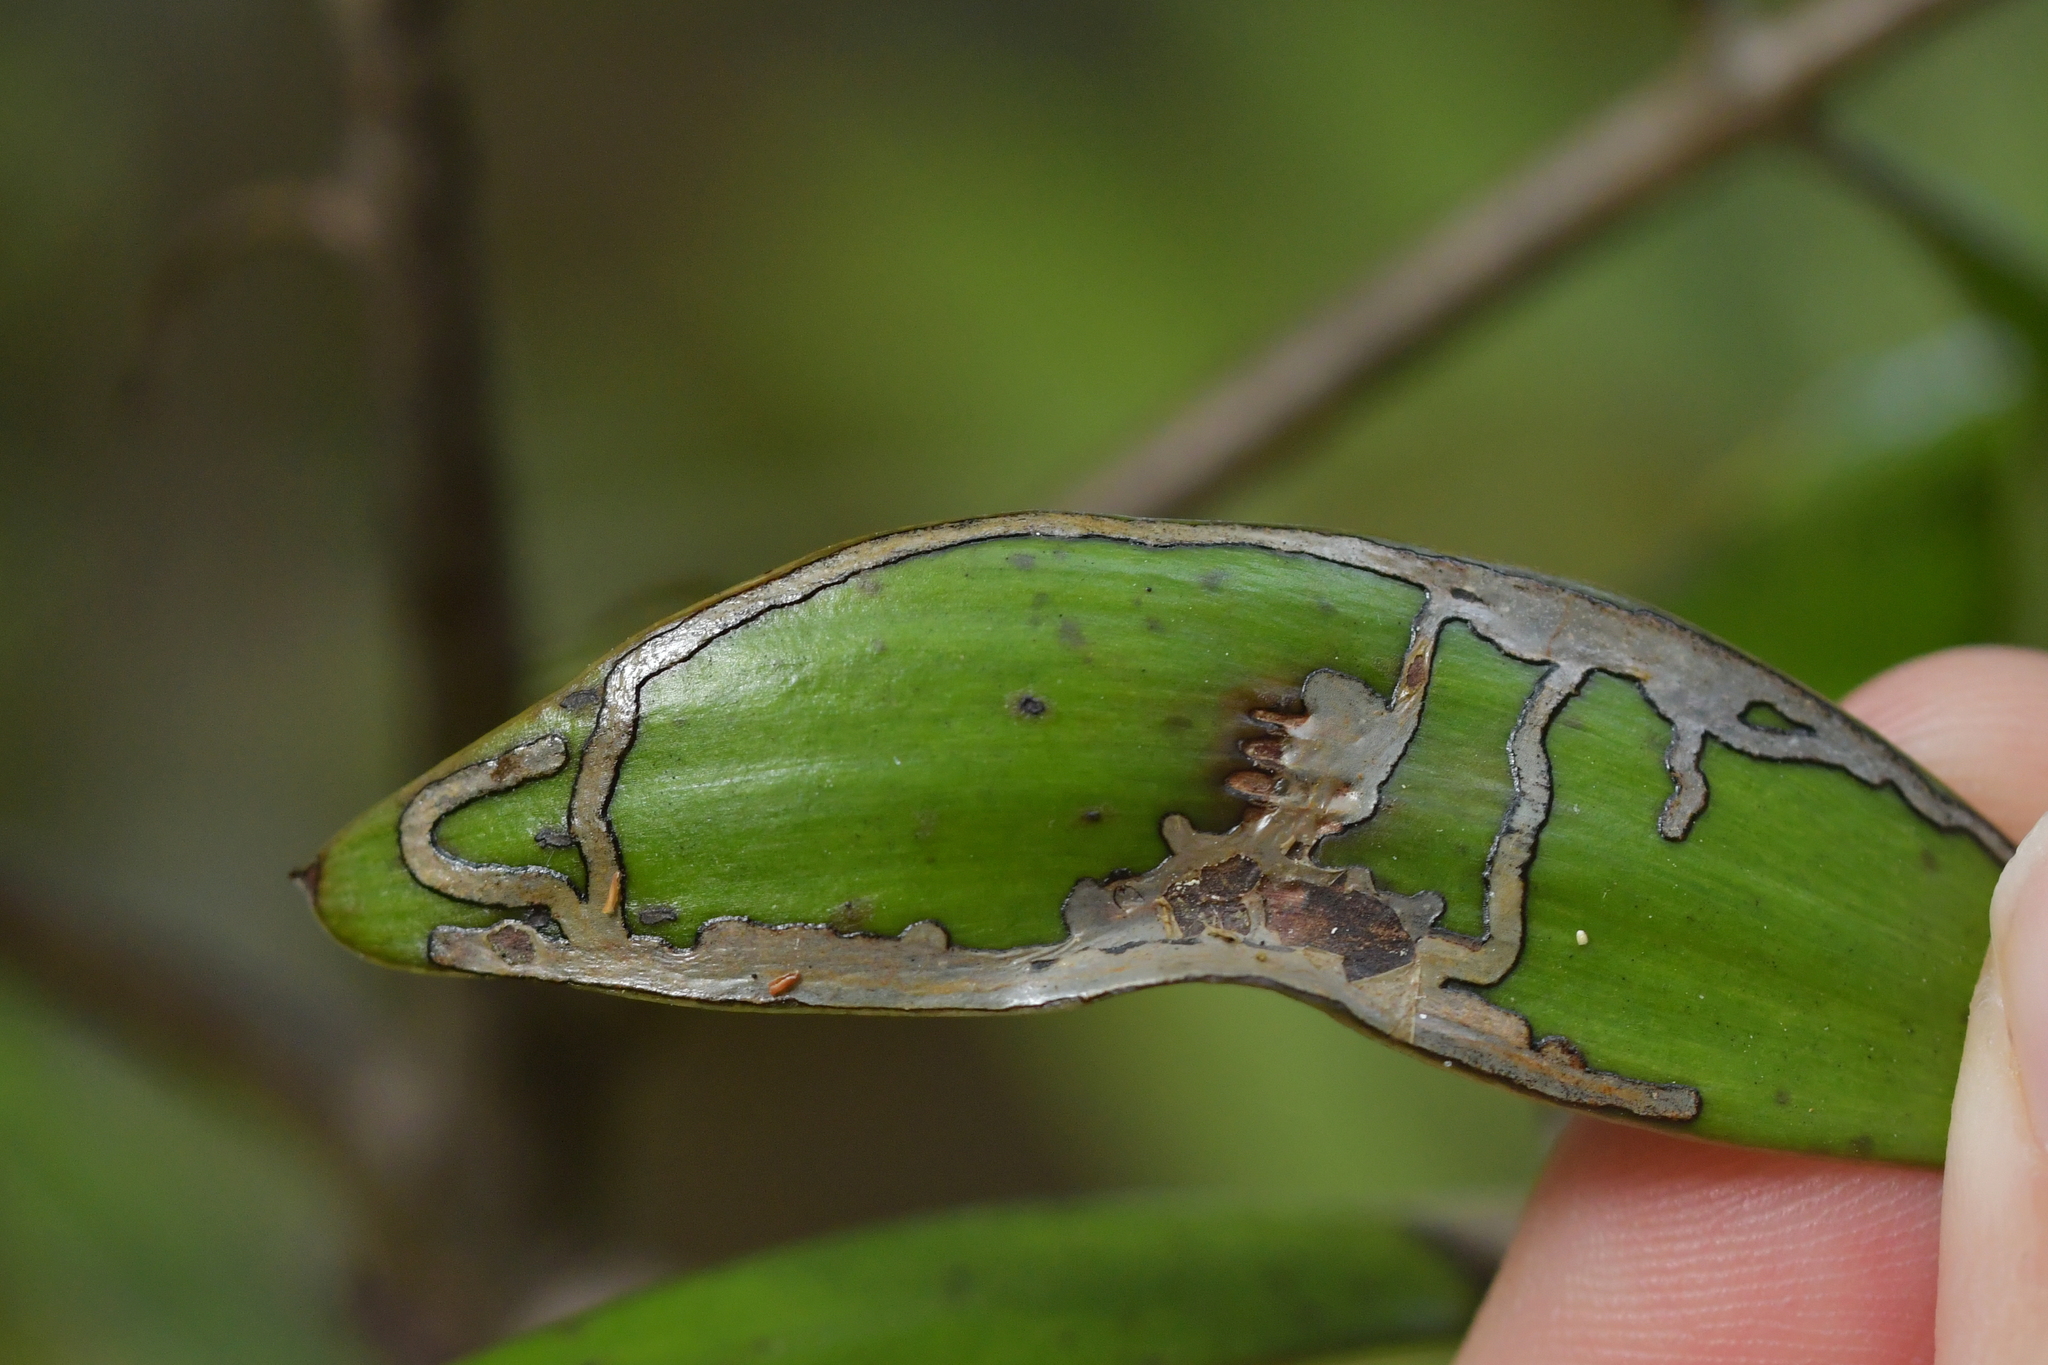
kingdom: Animalia
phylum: Arthropoda
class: Insecta
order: Lepidoptera
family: Gracillariidae
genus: Acrocercops
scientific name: Acrocercops leucotoma
